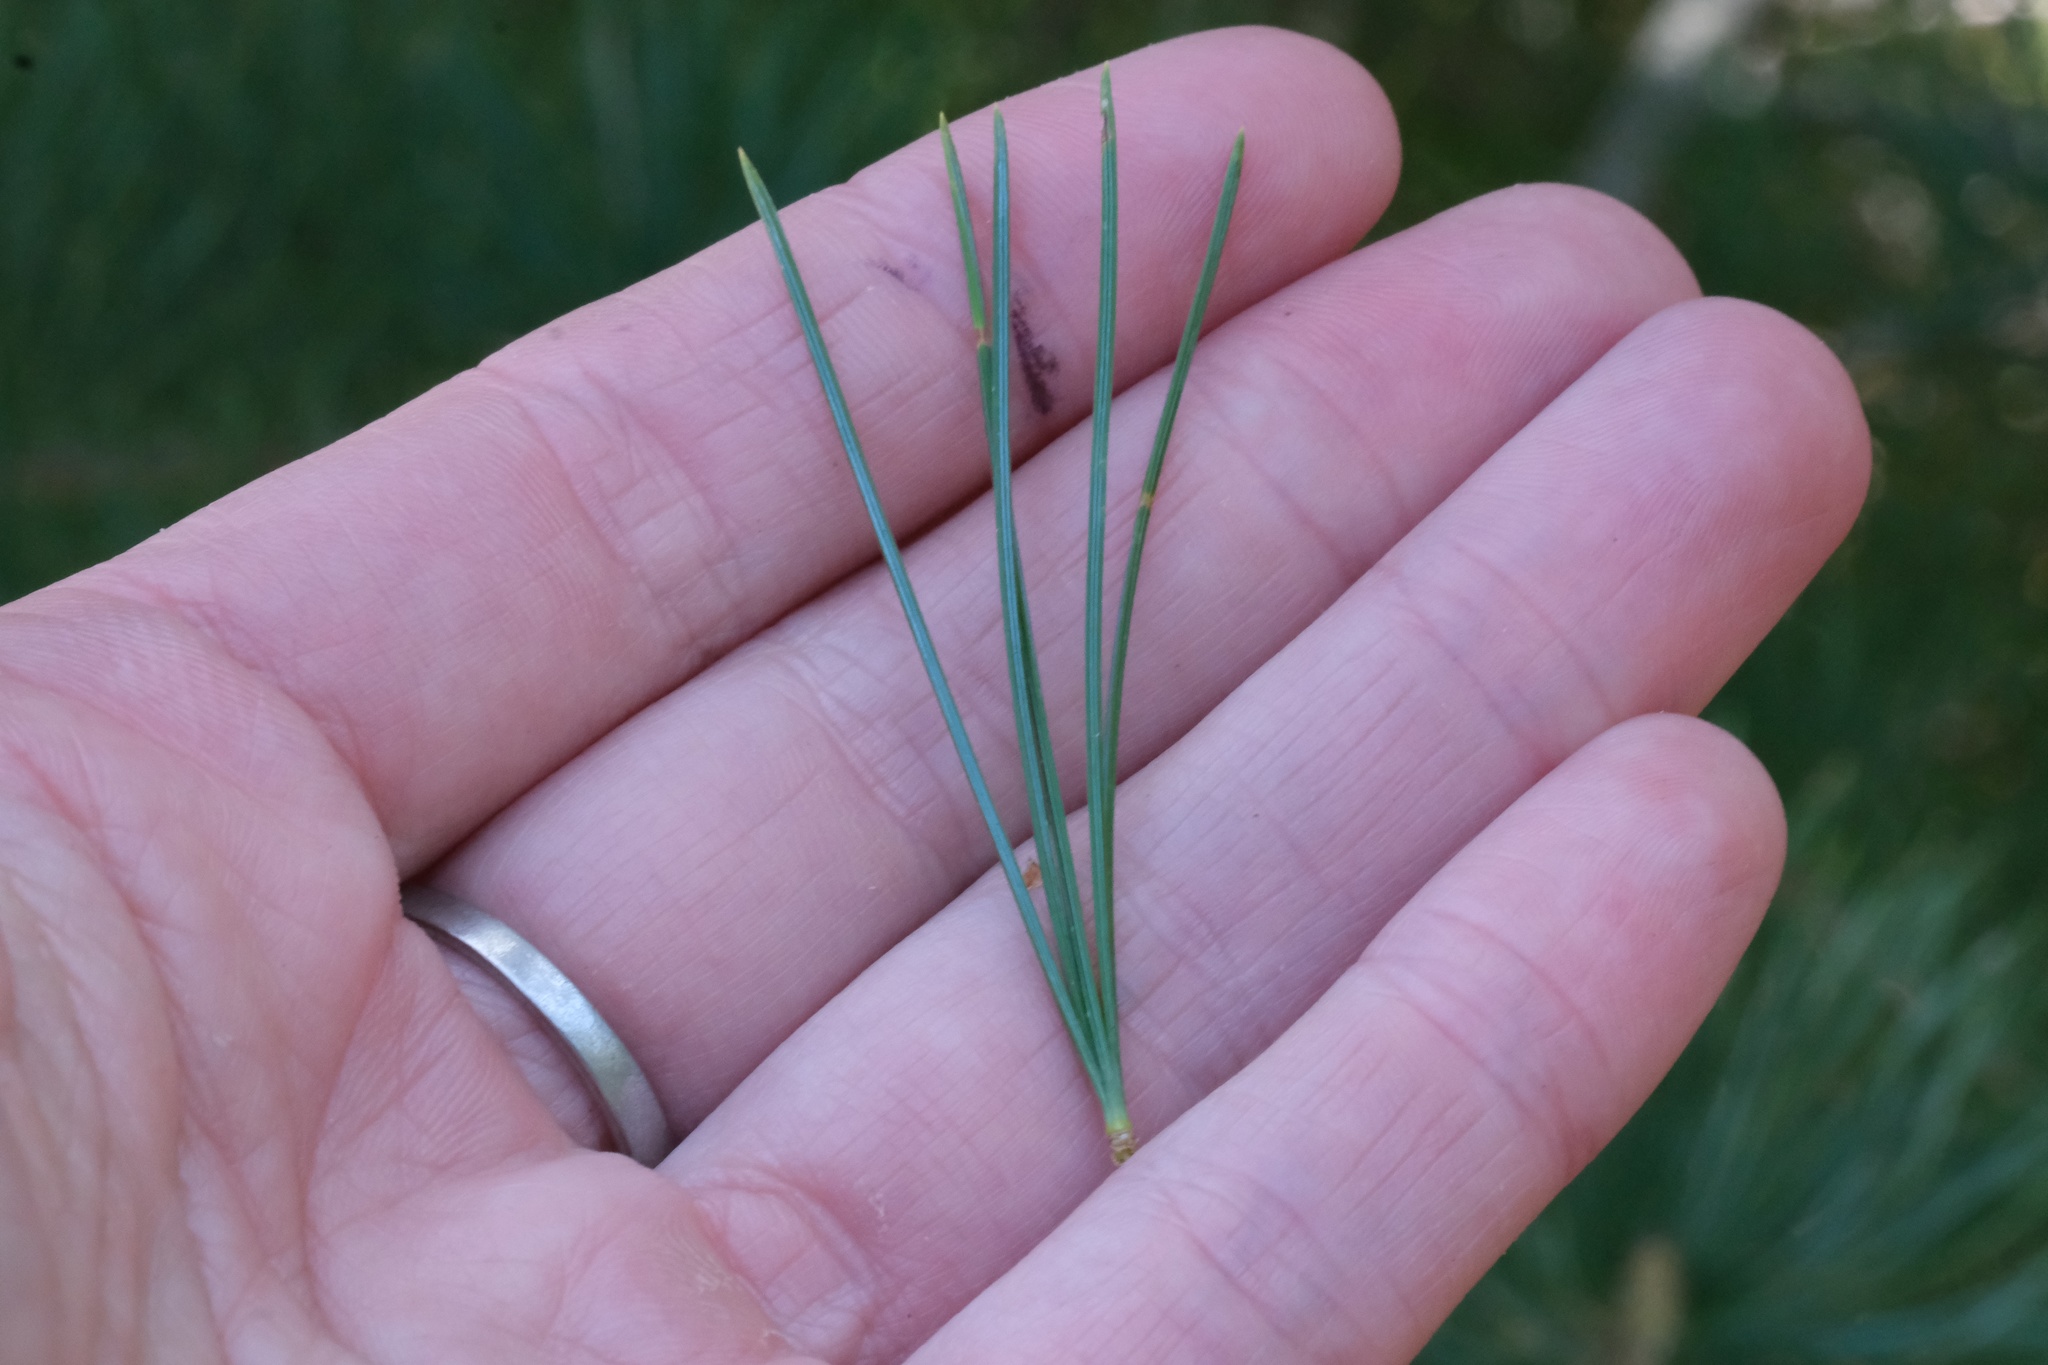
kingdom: Plantae
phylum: Tracheophyta
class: Pinopsida
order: Pinales
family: Pinaceae
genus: Pinus
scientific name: Pinus lambertiana
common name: Sugar pine
